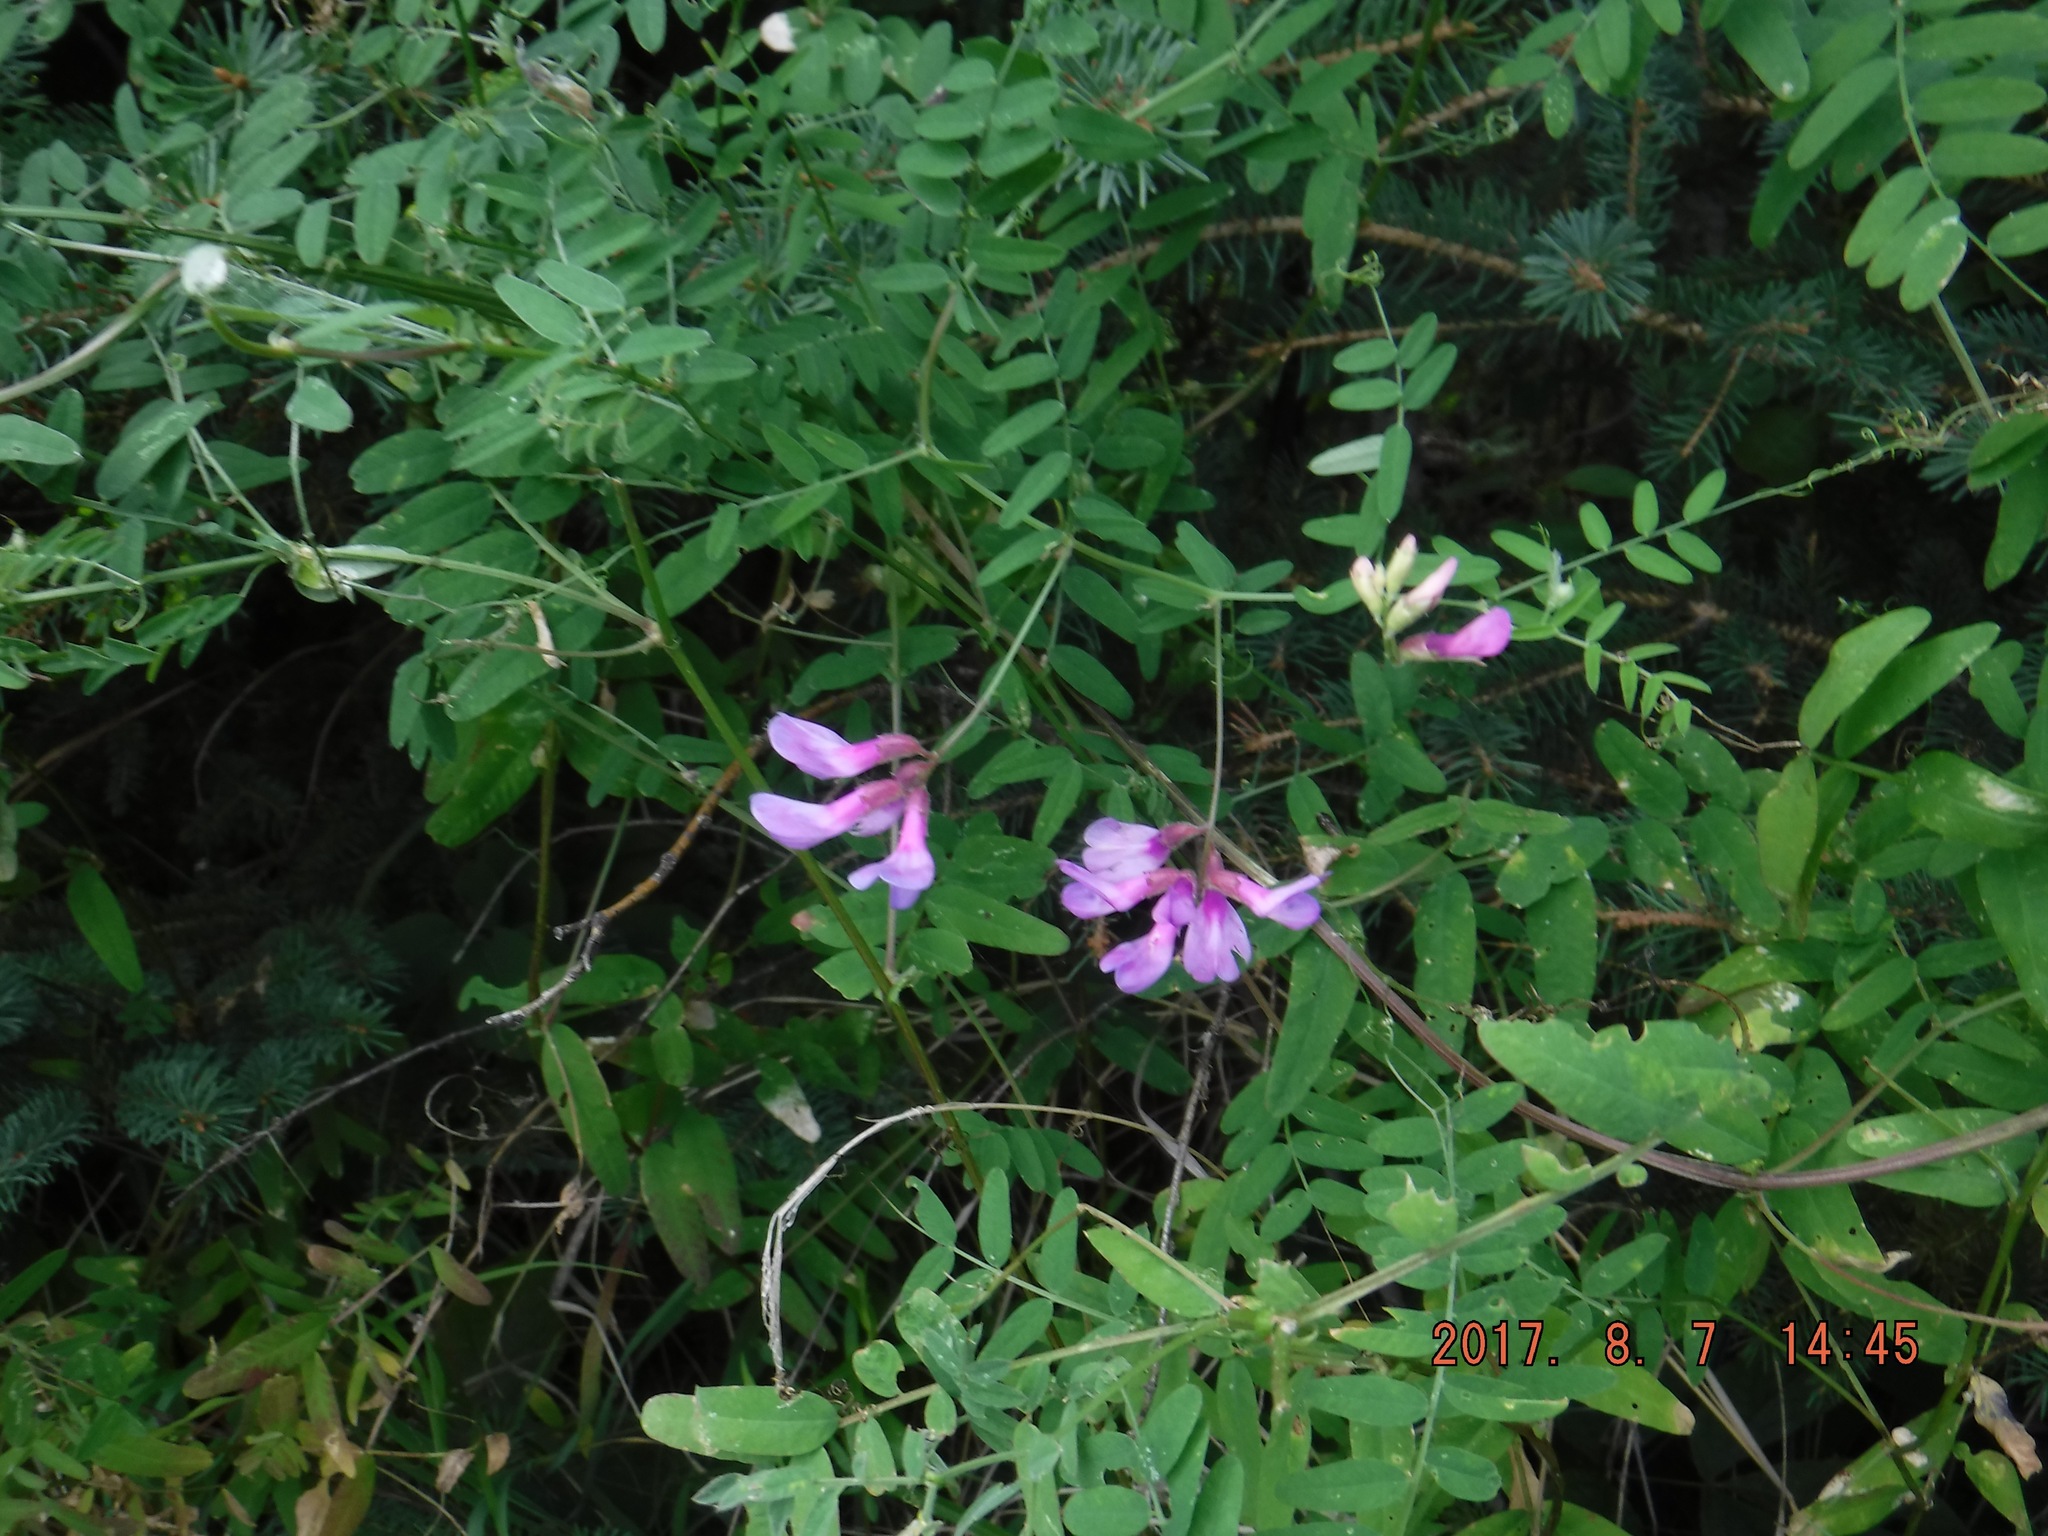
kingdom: Plantae
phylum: Tracheophyta
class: Magnoliopsida
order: Fabales
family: Fabaceae
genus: Vicia
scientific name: Vicia americana
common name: American vetch
